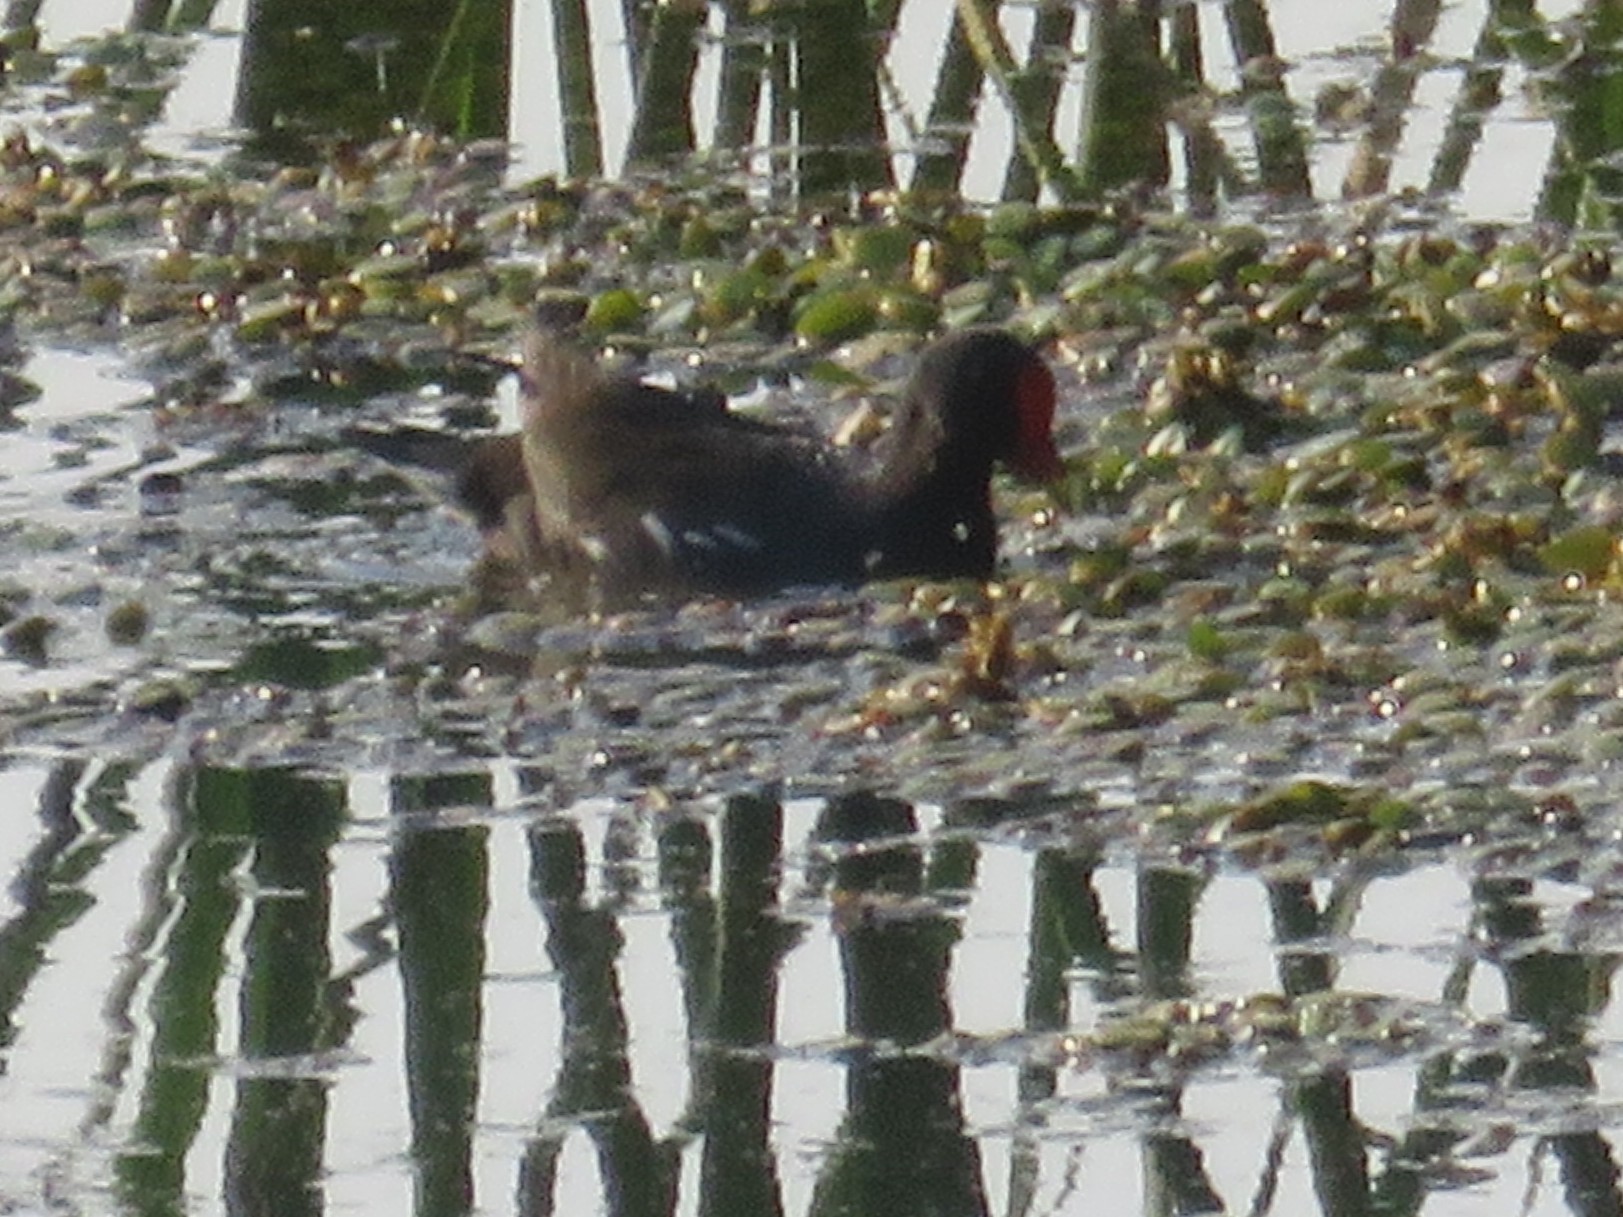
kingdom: Animalia
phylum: Chordata
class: Aves
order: Gruiformes
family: Rallidae
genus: Gallinula
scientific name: Gallinula chloropus
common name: Common moorhen
